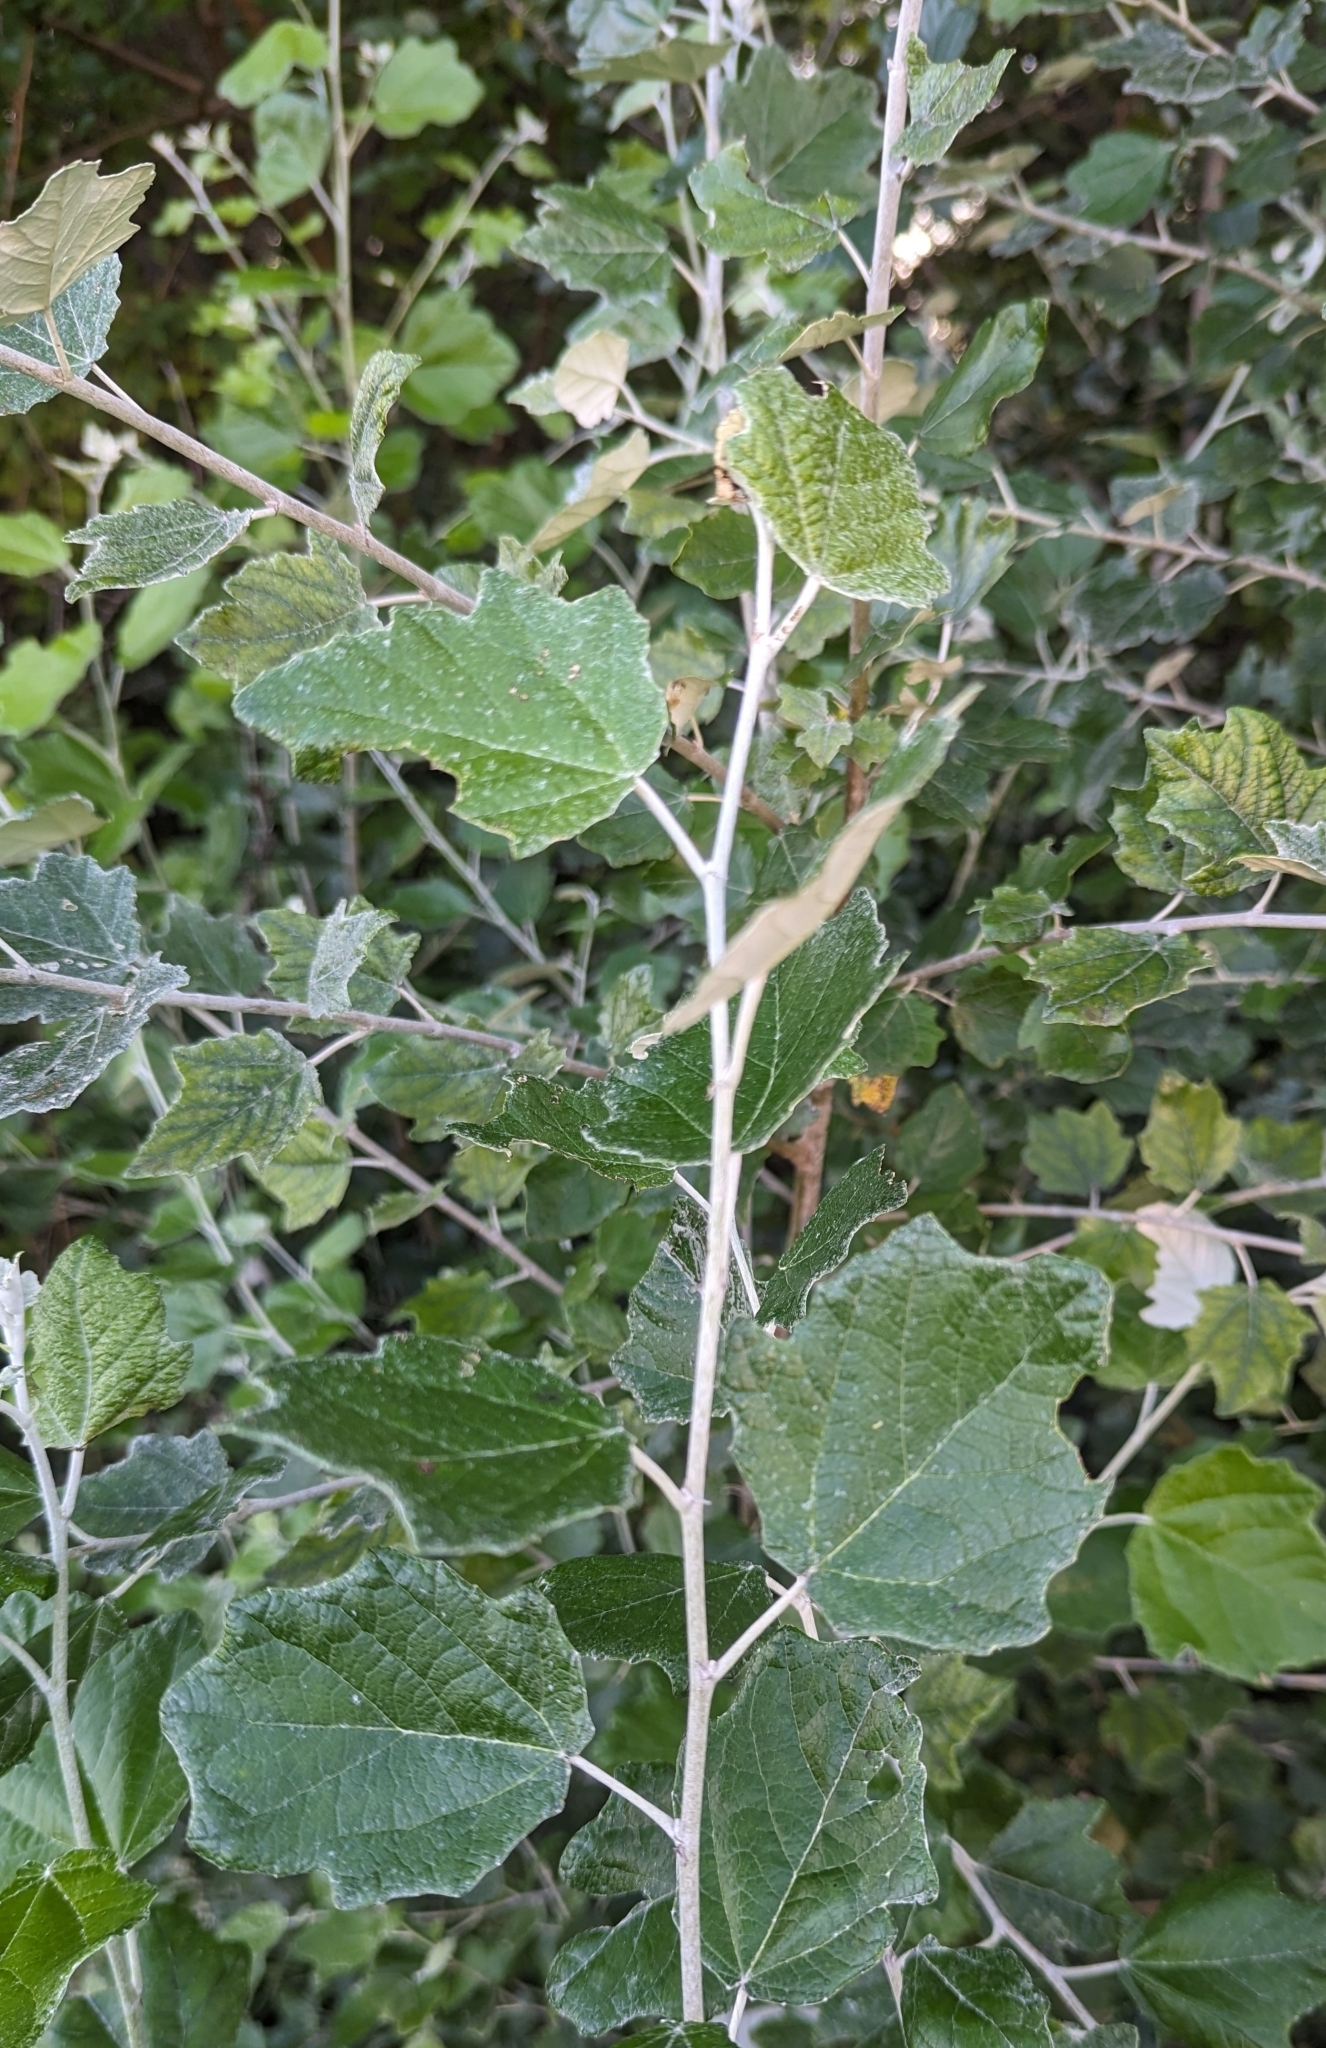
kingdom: Plantae
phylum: Tracheophyta
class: Magnoliopsida
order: Malpighiales
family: Salicaceae
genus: Populus
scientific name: Populus alba
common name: White poplar
